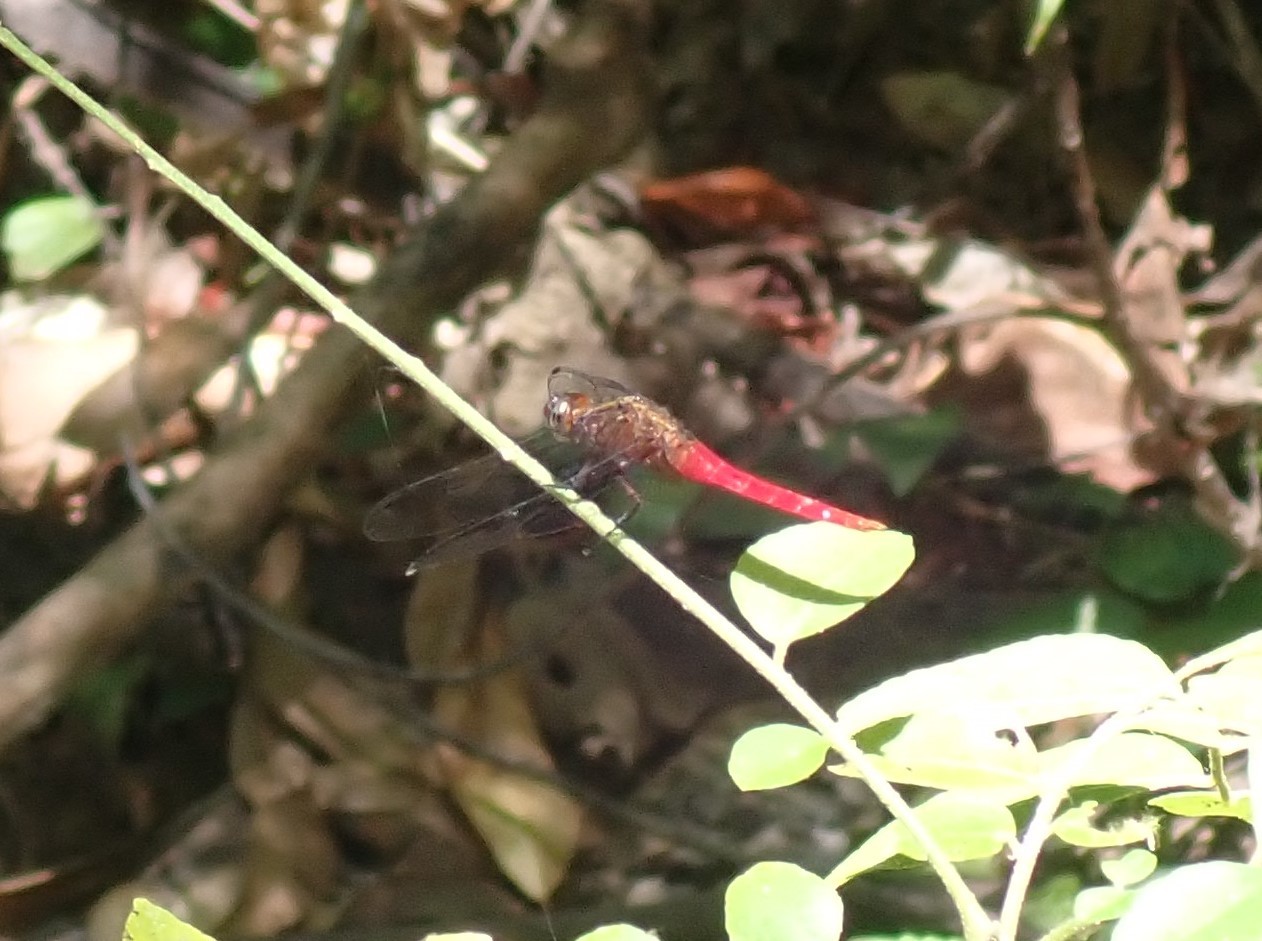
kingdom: Animalia
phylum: Arthropoda
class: Insecta
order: Odonata
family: Libellulidae
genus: Orthetrum
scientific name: Orthetrum chrysis
